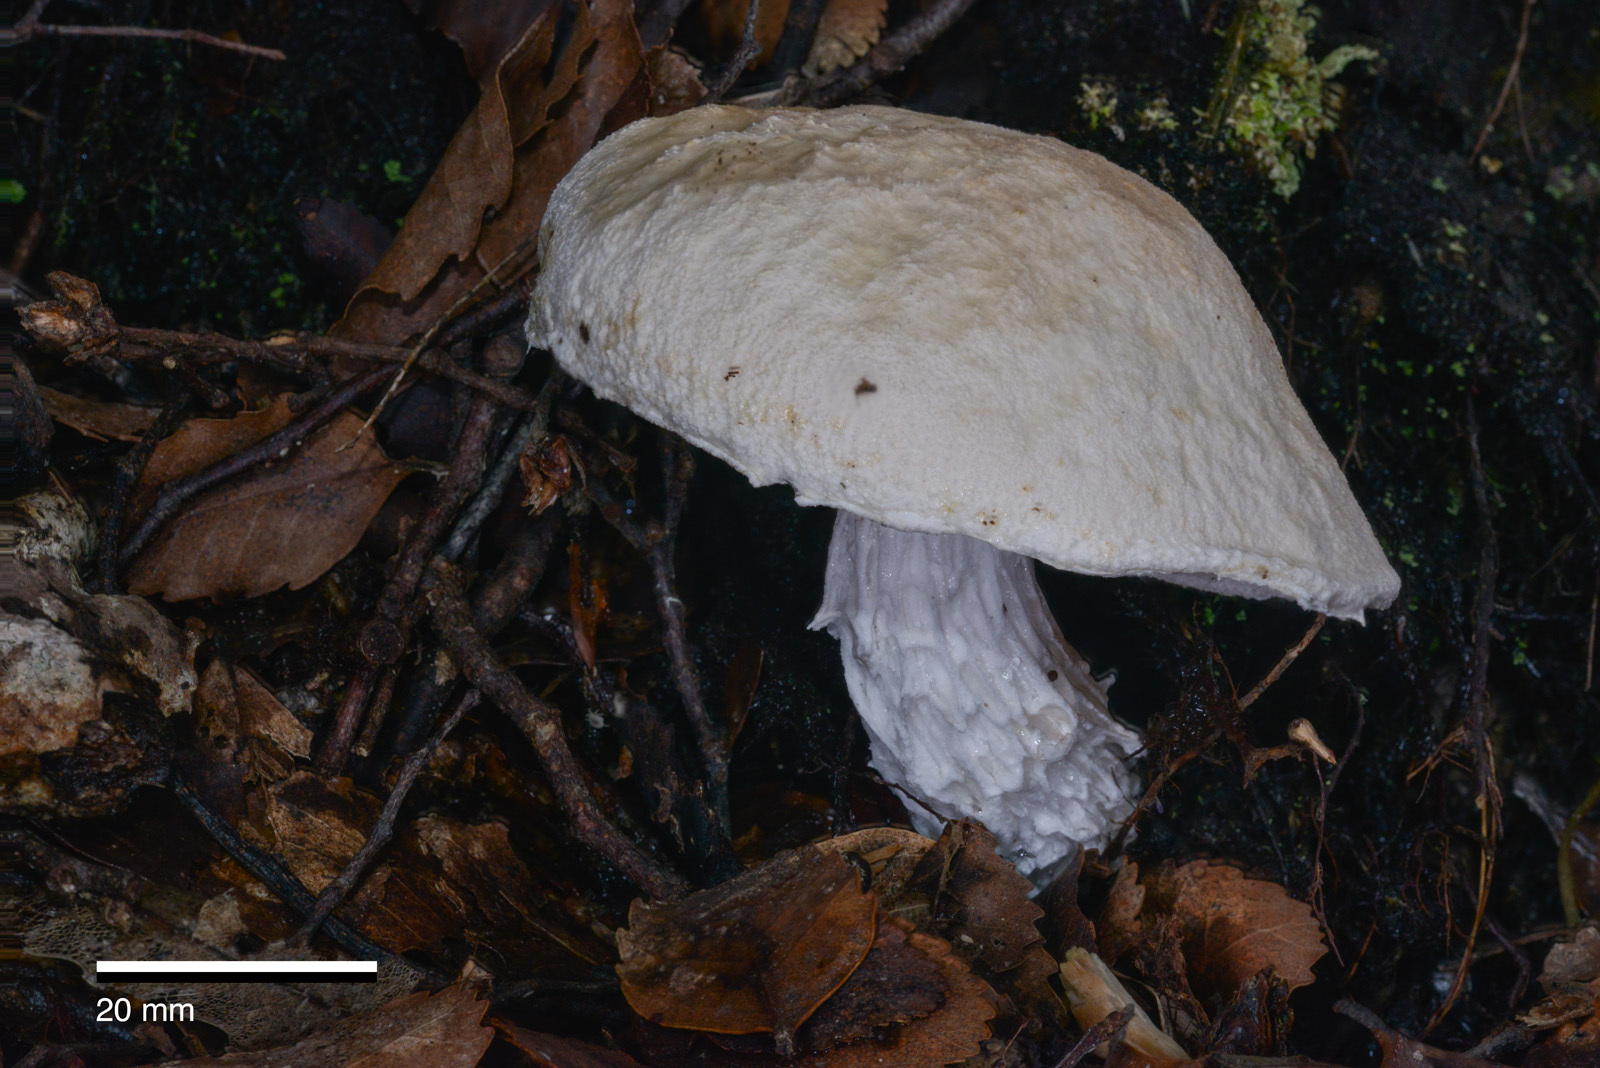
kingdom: Fungi
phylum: Basidiomycota
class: Agaricomycetes
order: Boletales
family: Boletaceae
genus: Fistulinella
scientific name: Fistulinella nivea
